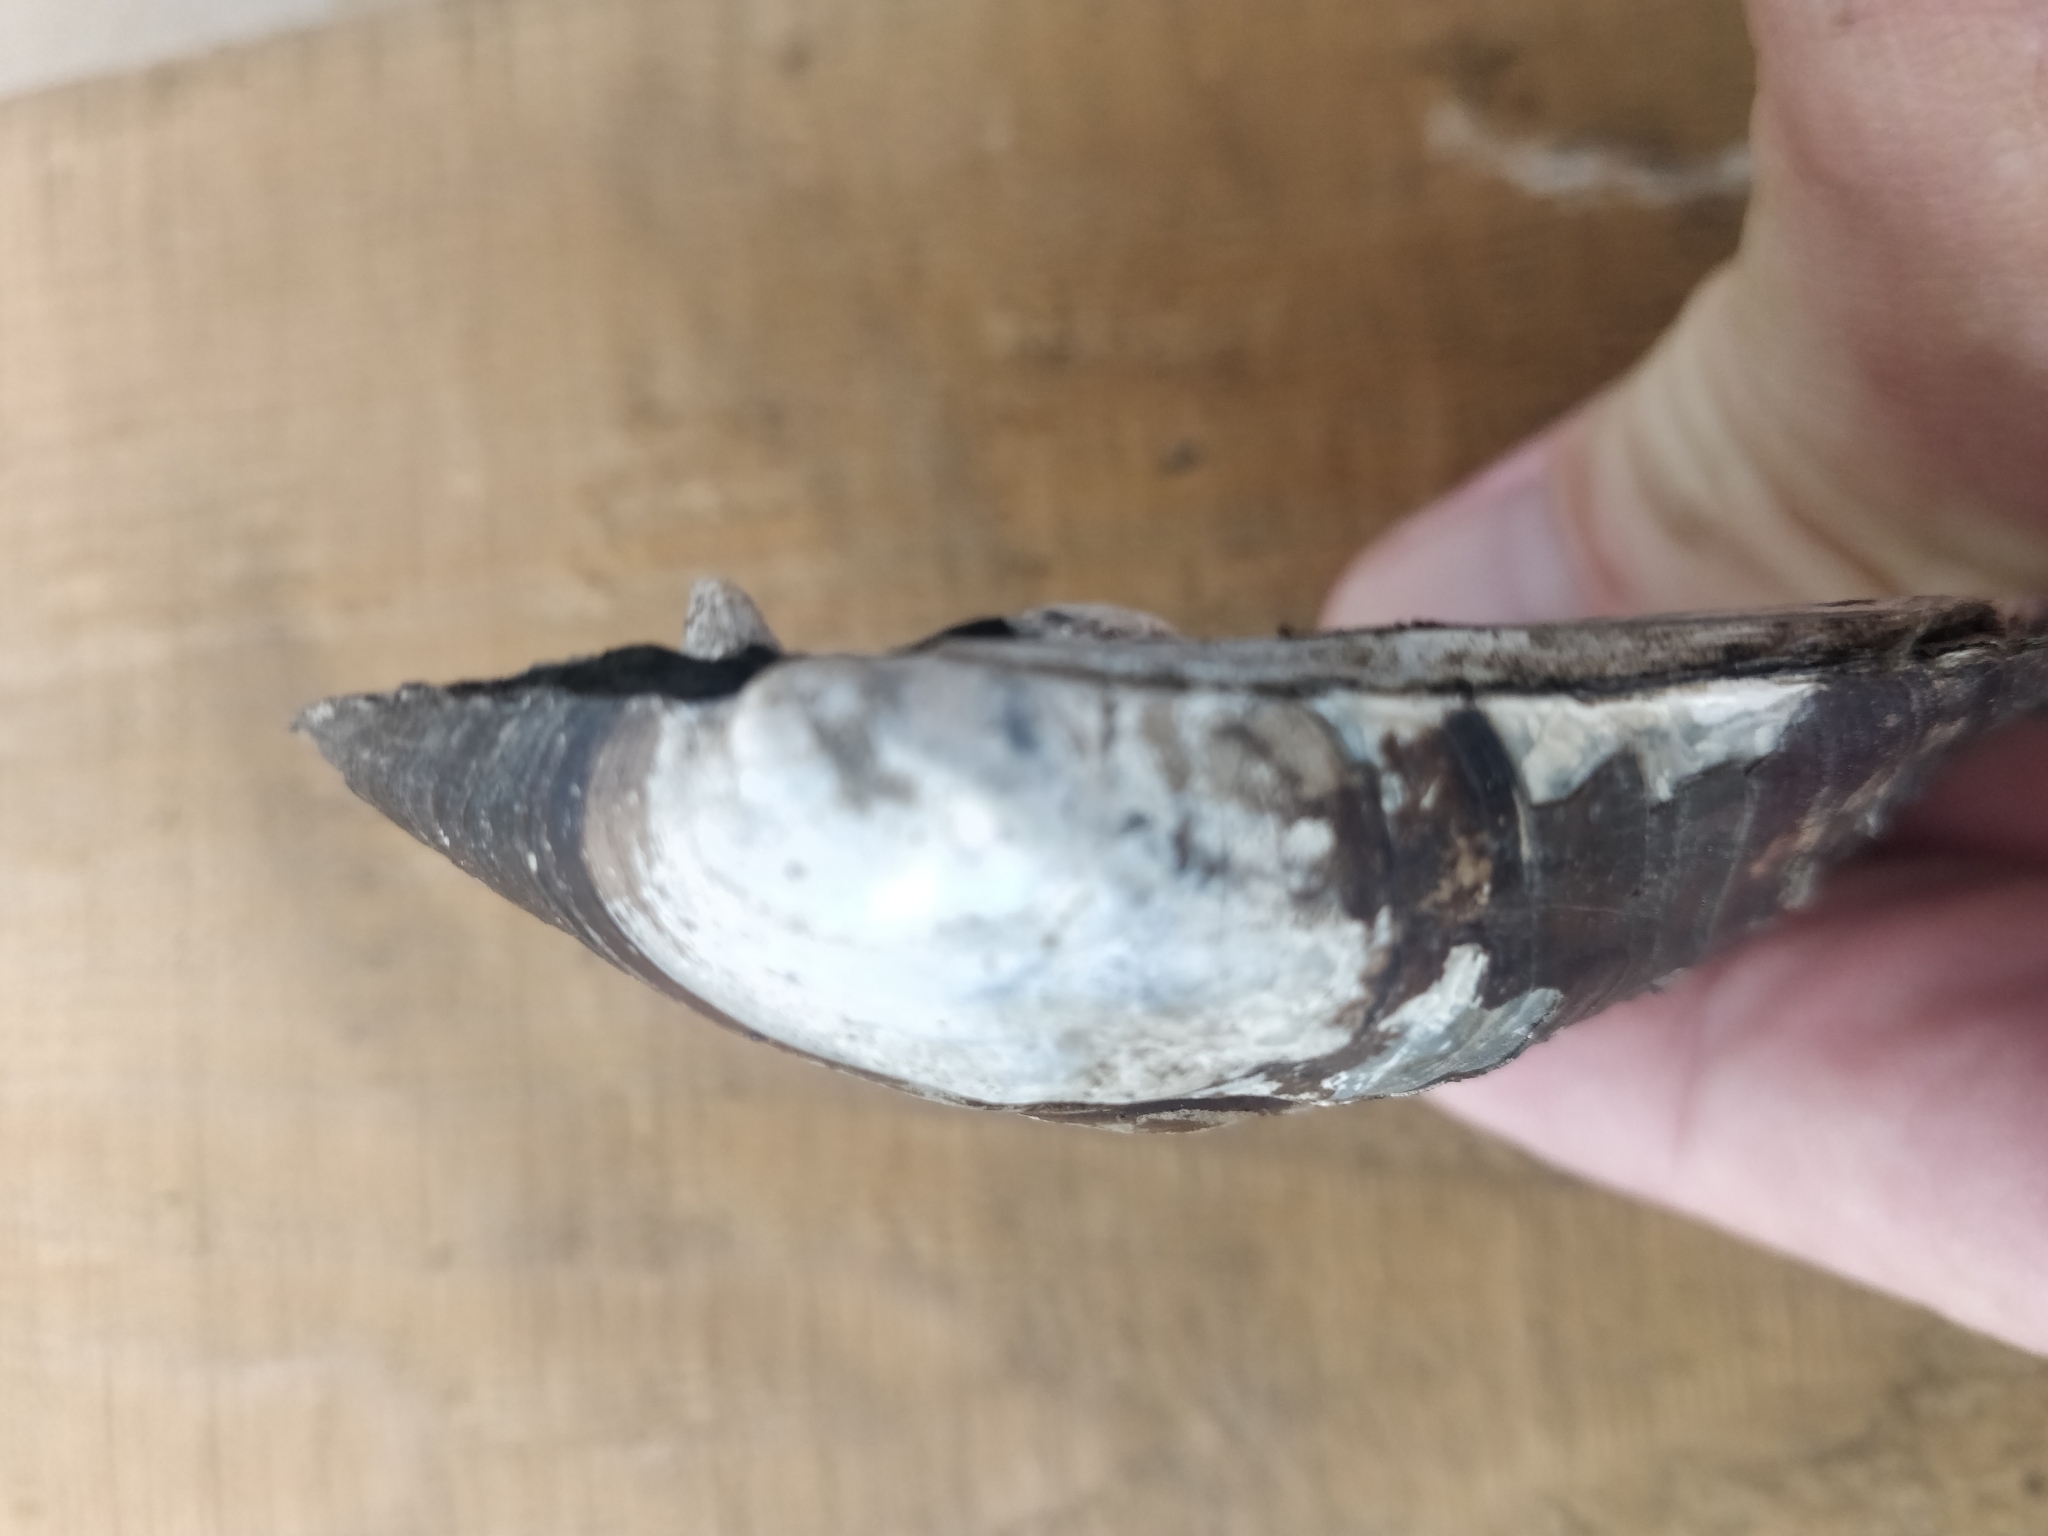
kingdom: Animalia
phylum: Mollusca
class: Bivalvia
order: Unionida
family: Unionidae
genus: Amblema
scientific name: Amblema plicata
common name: Threeridge
